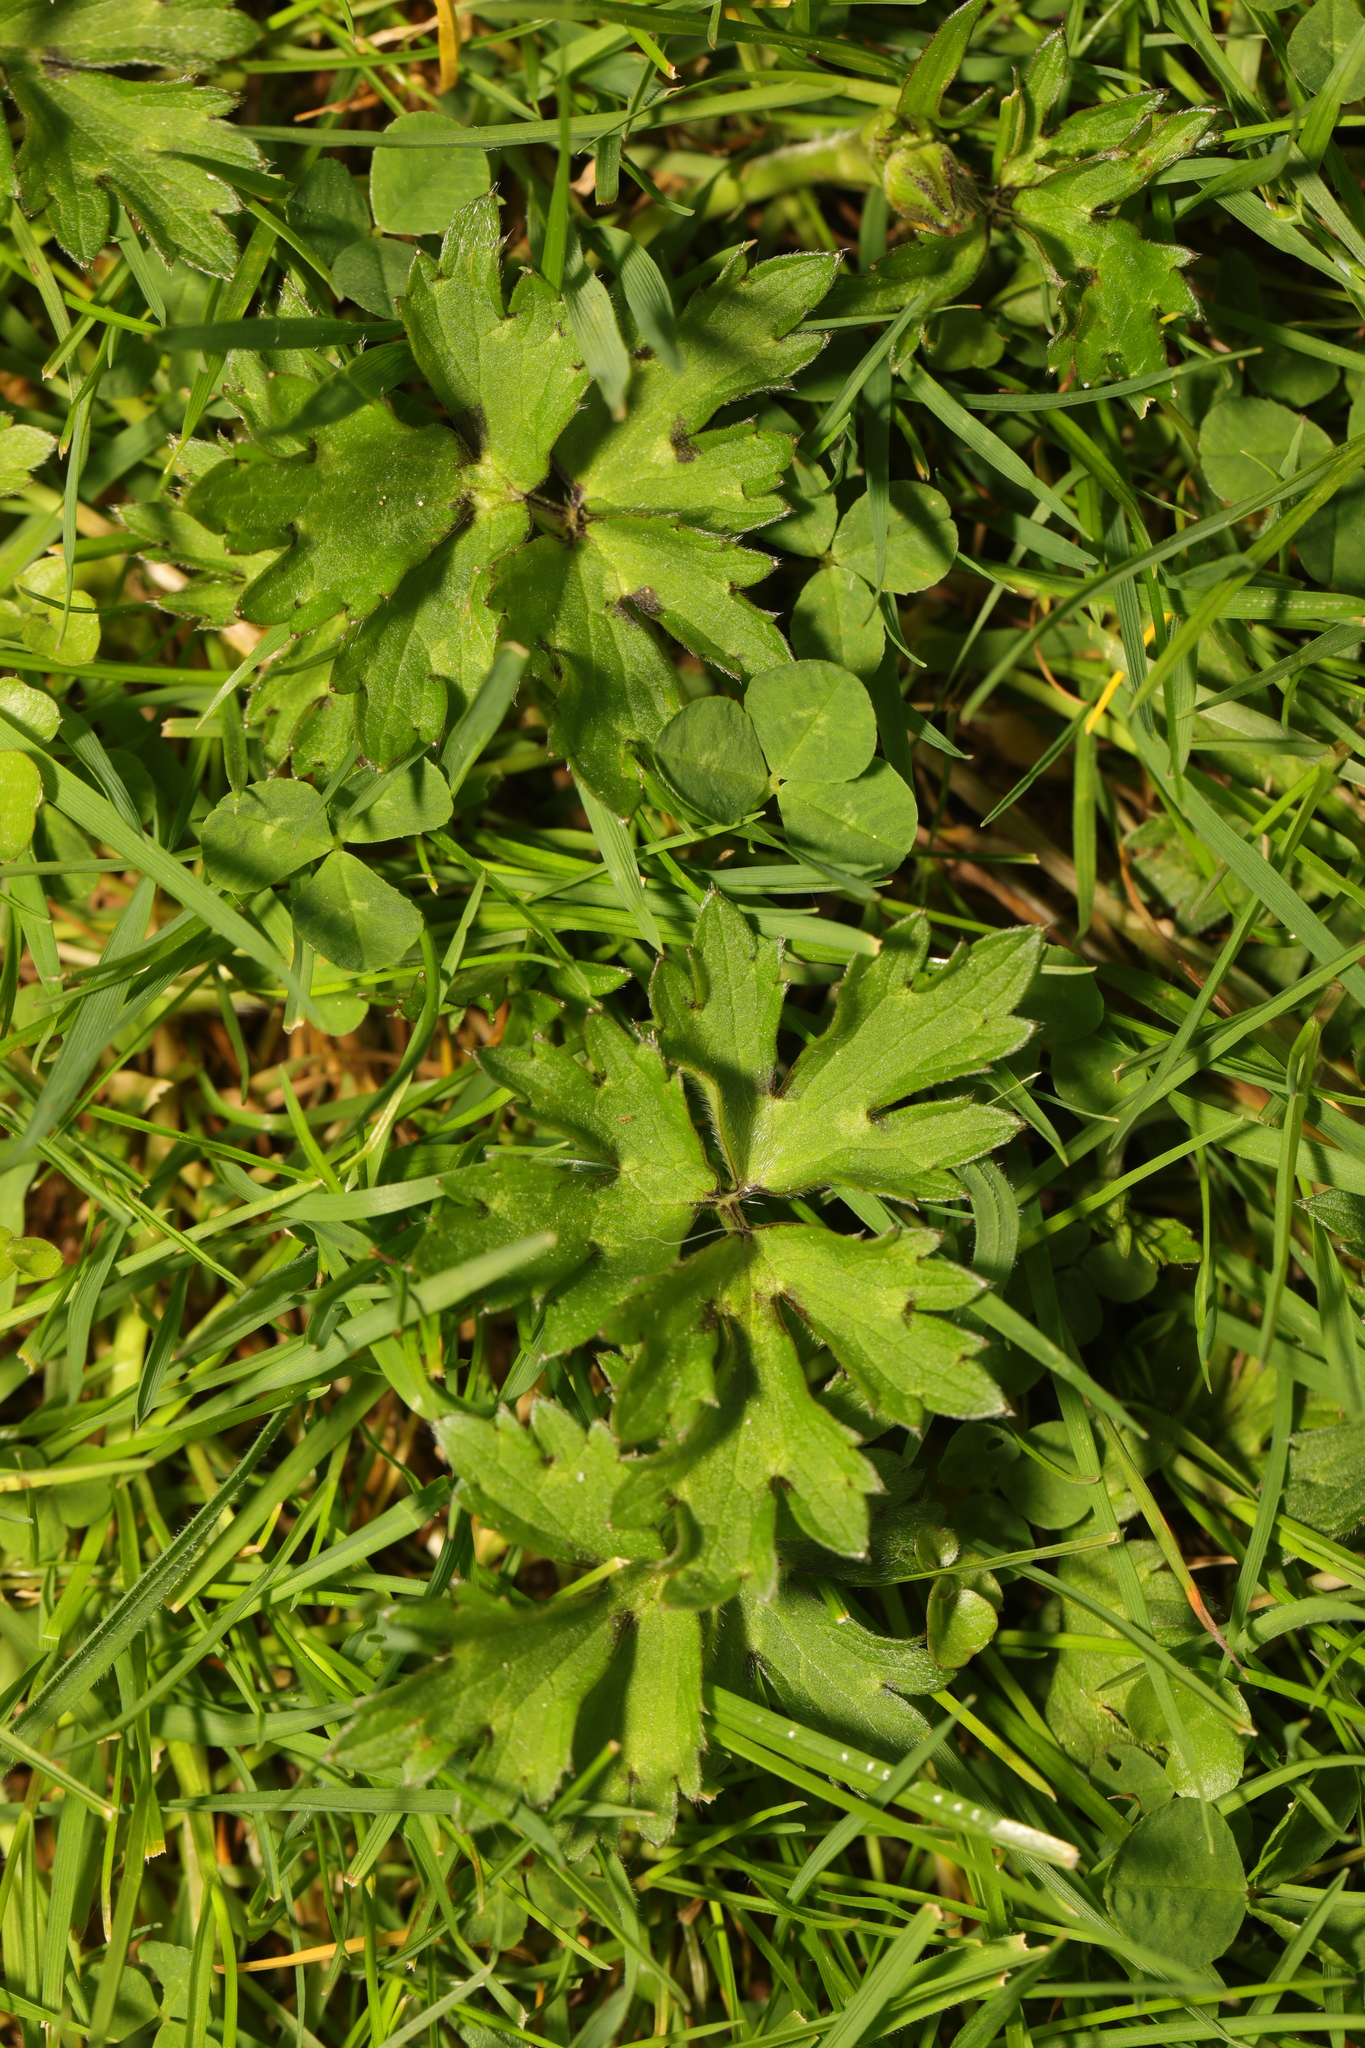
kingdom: Plantae
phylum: Tracheophyta
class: Magnoliopsida
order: Ranunculales
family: Ranunculaceae
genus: Ranunculus
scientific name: Ranunculus repens
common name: Creeping buttercup
